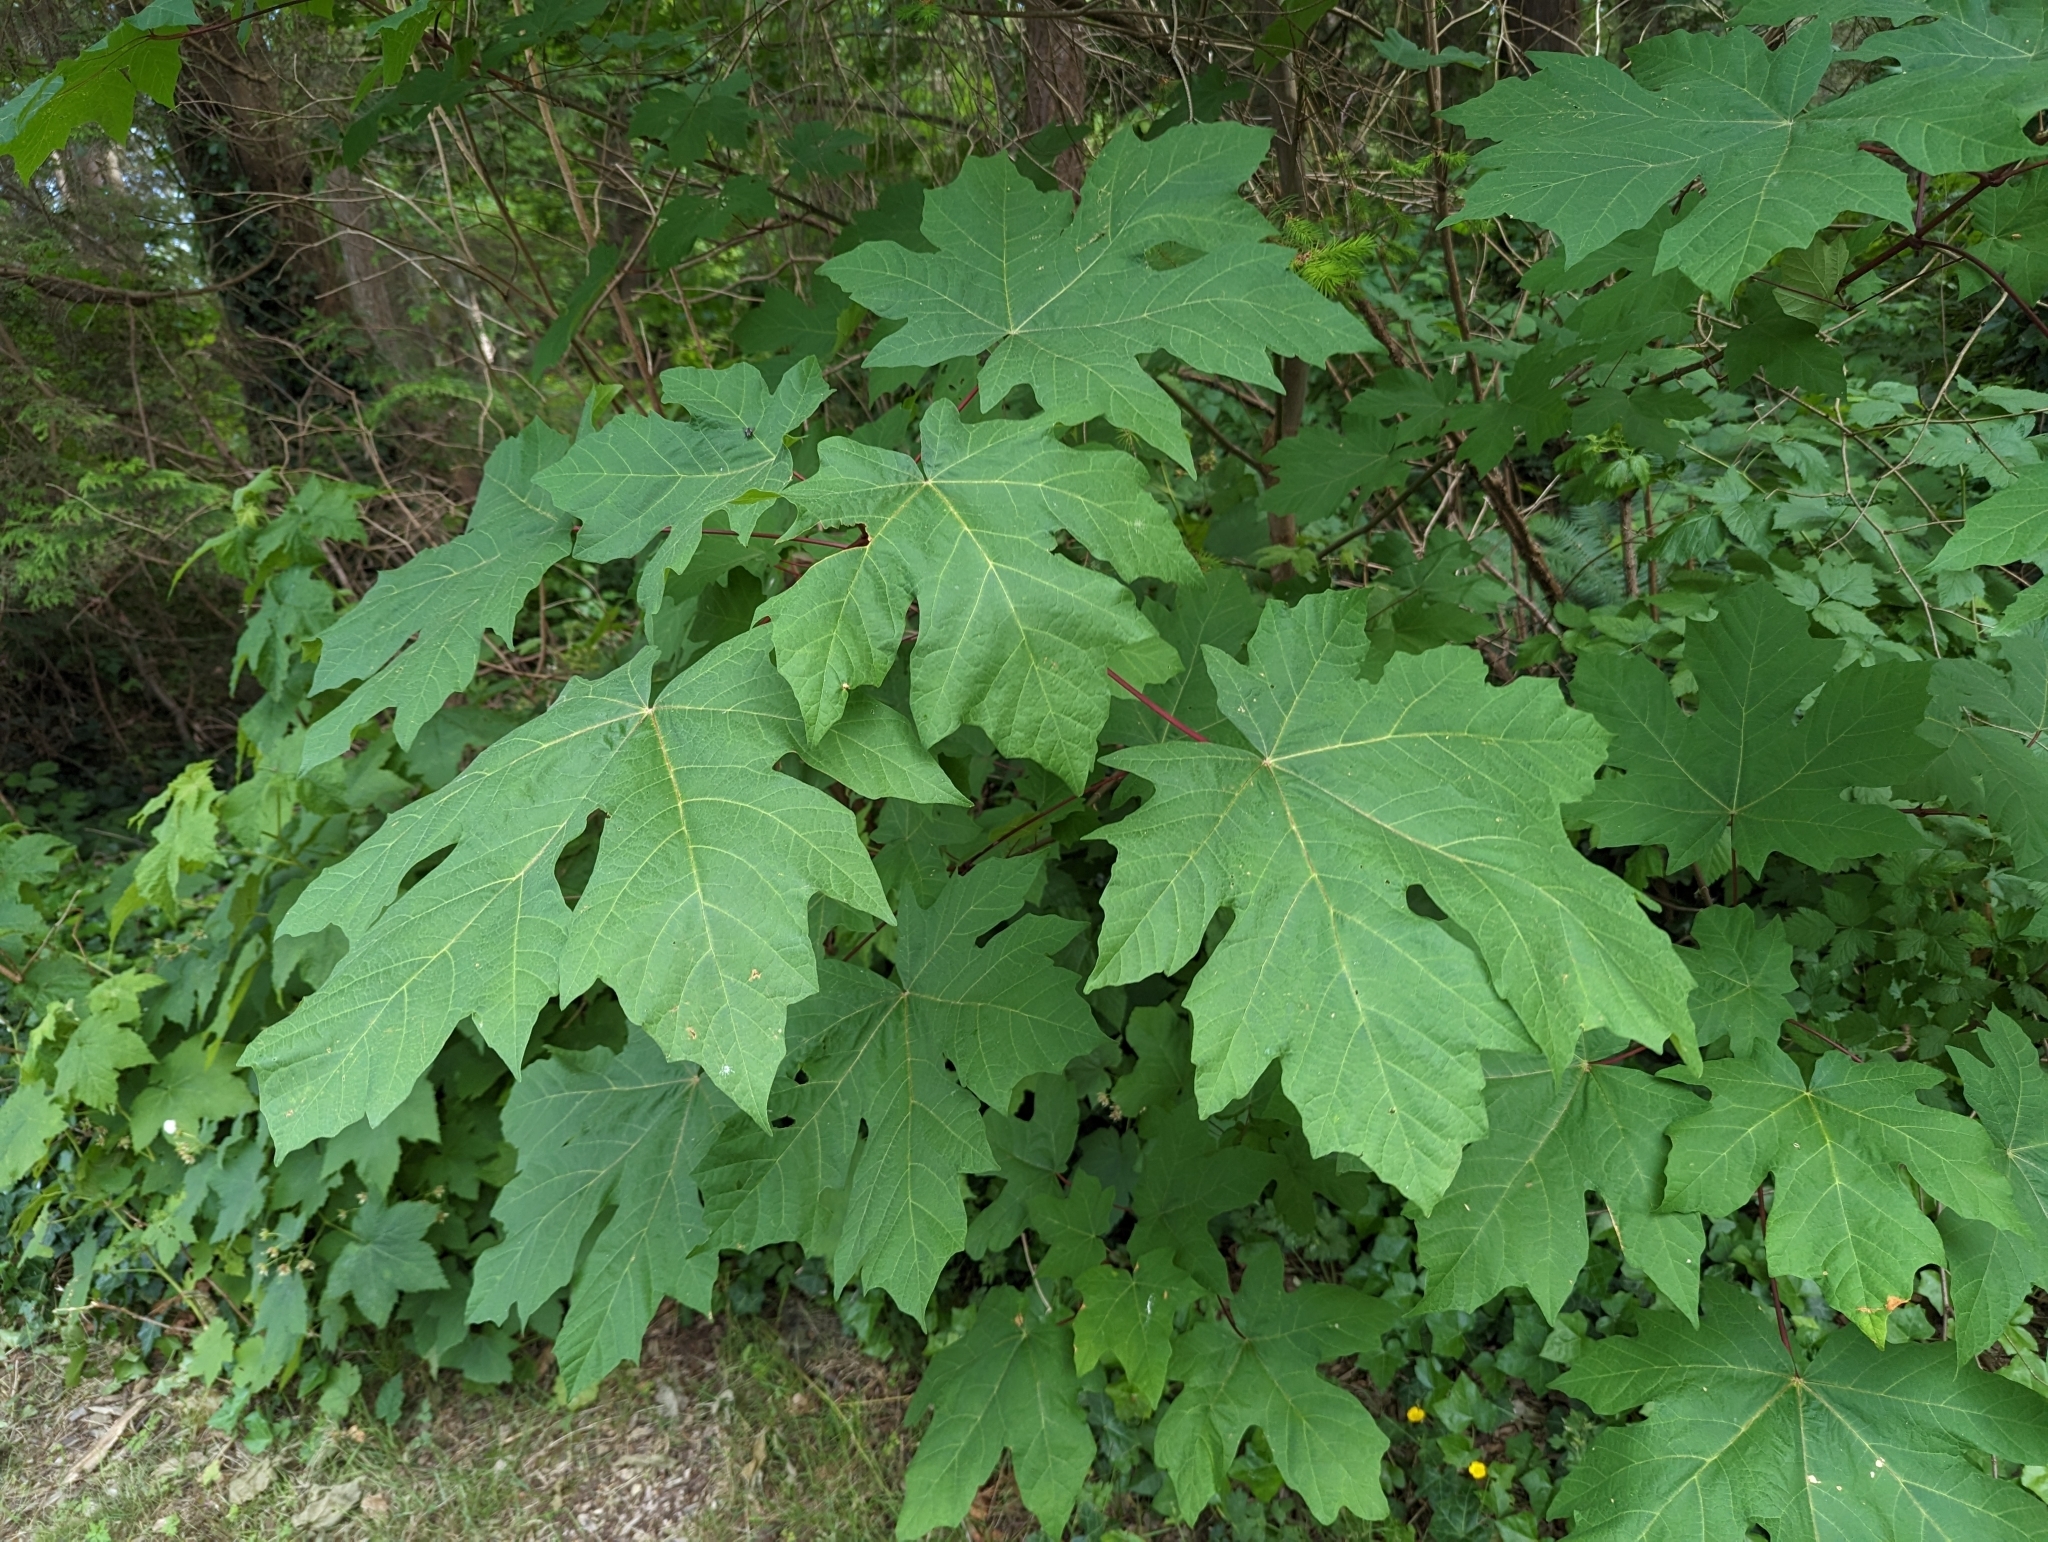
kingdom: Plantae
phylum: Tracheophyta
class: Magnoliopsida
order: Sapindales
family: Sapindaceae
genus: Acer
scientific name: Acer macrophyllum
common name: Oregon maple
